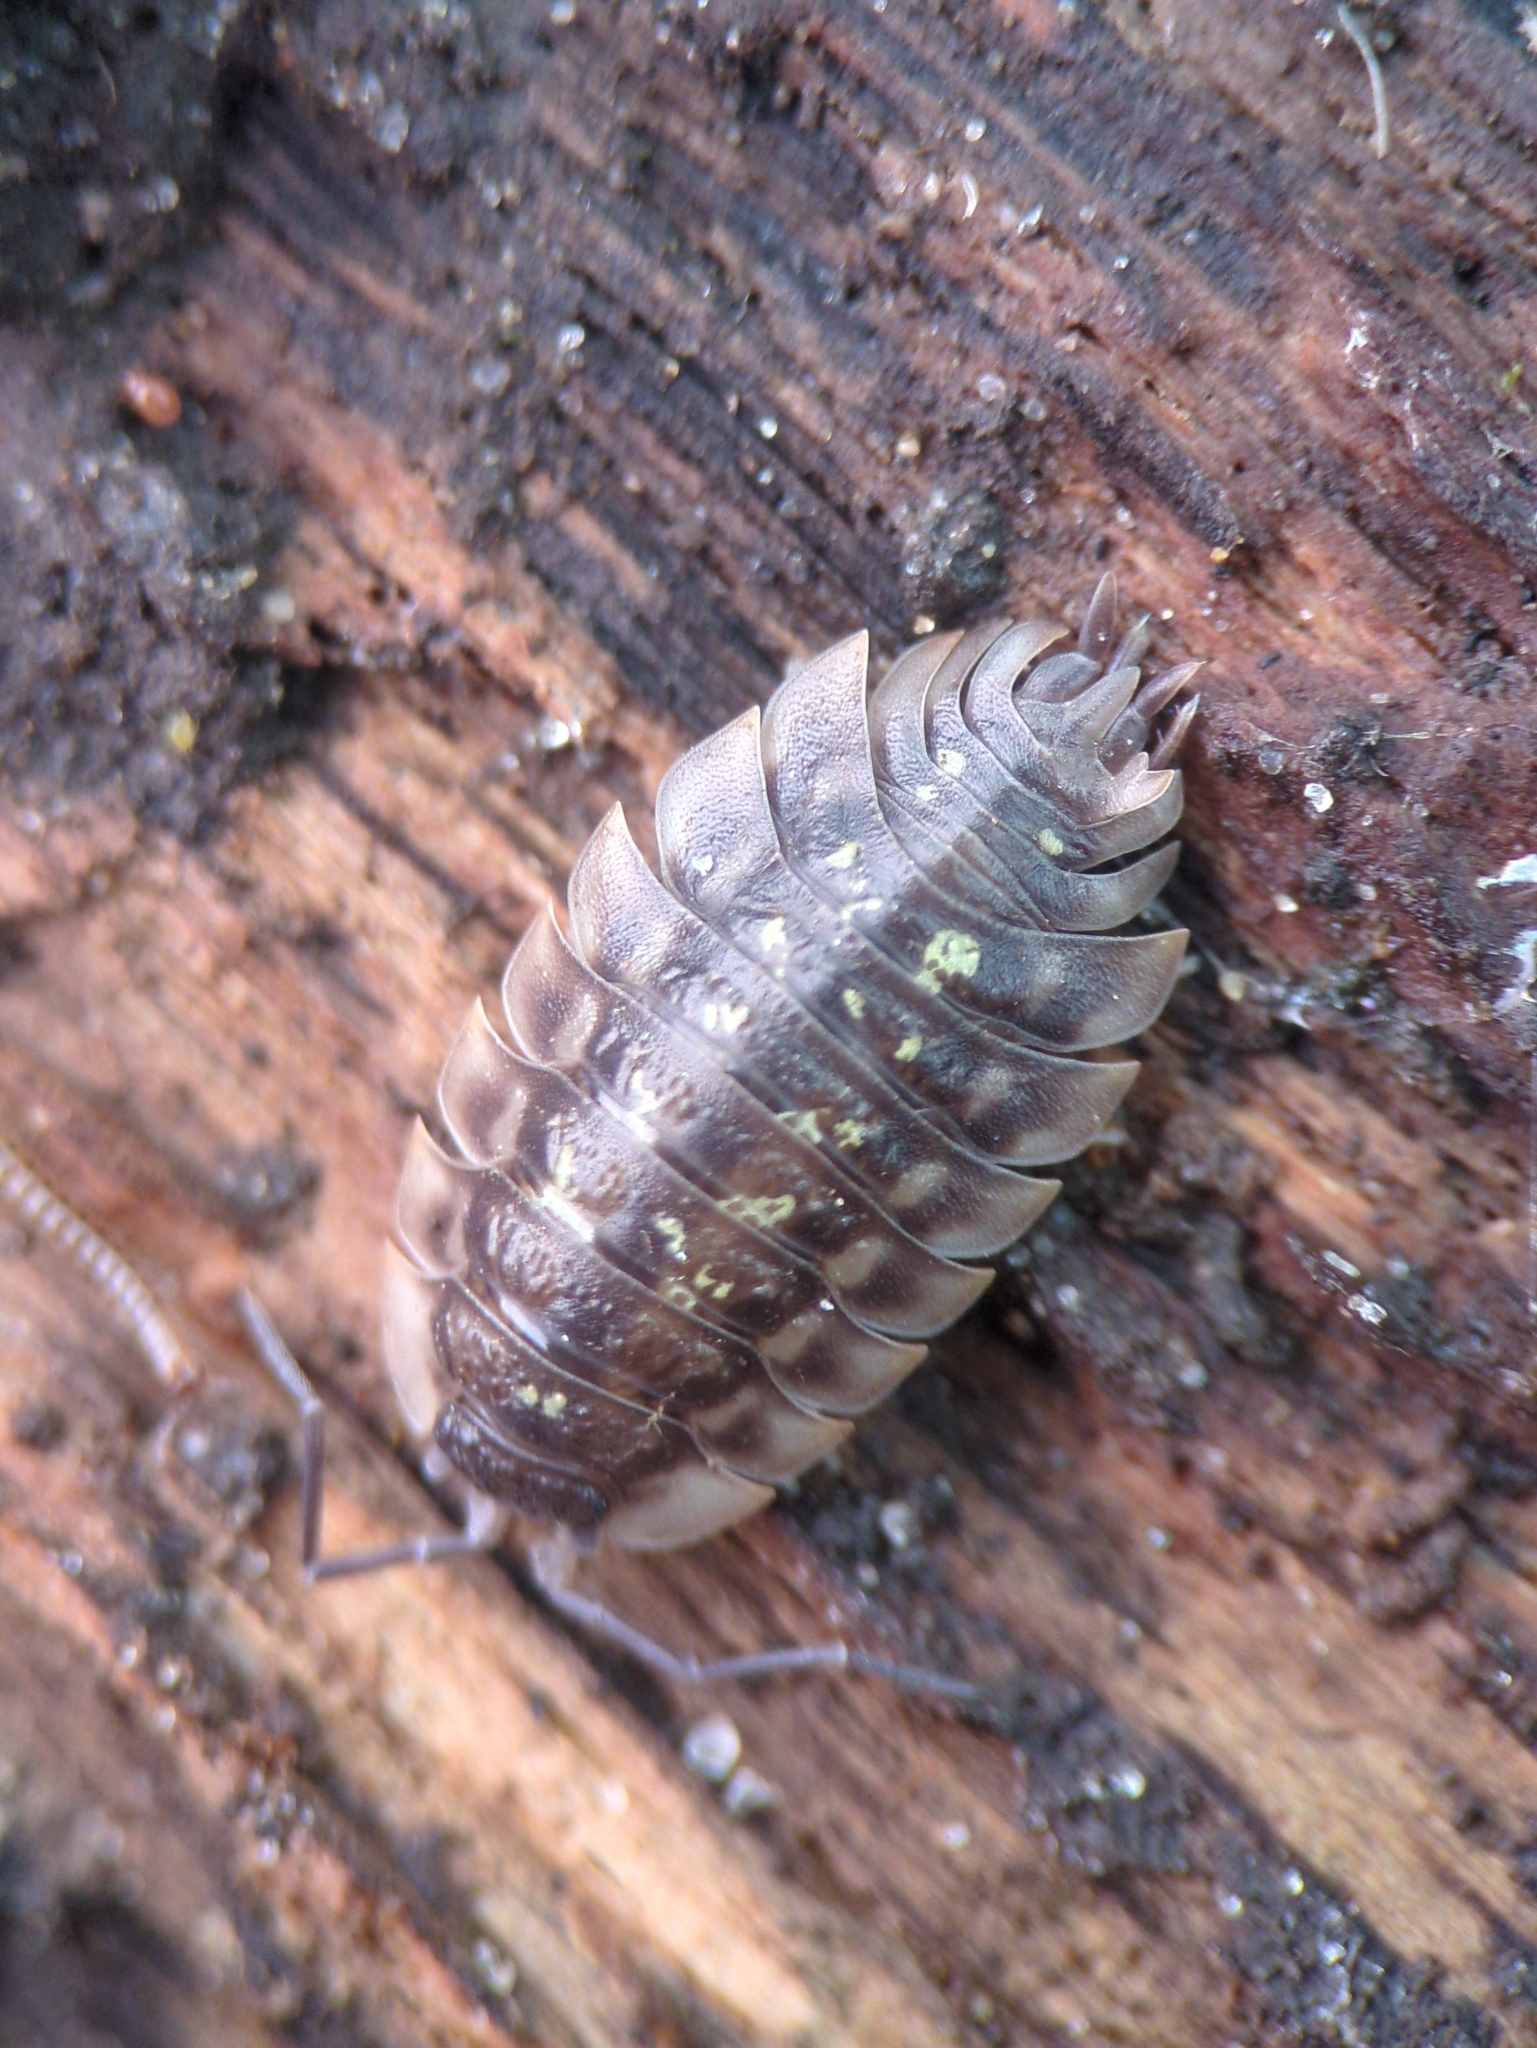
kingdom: Animalia
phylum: Arthropoda
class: Malacostraca
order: Isopoda
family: Oniscidae
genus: Oniscus
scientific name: Oniscus asellus
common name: Common shiny woodlouse
